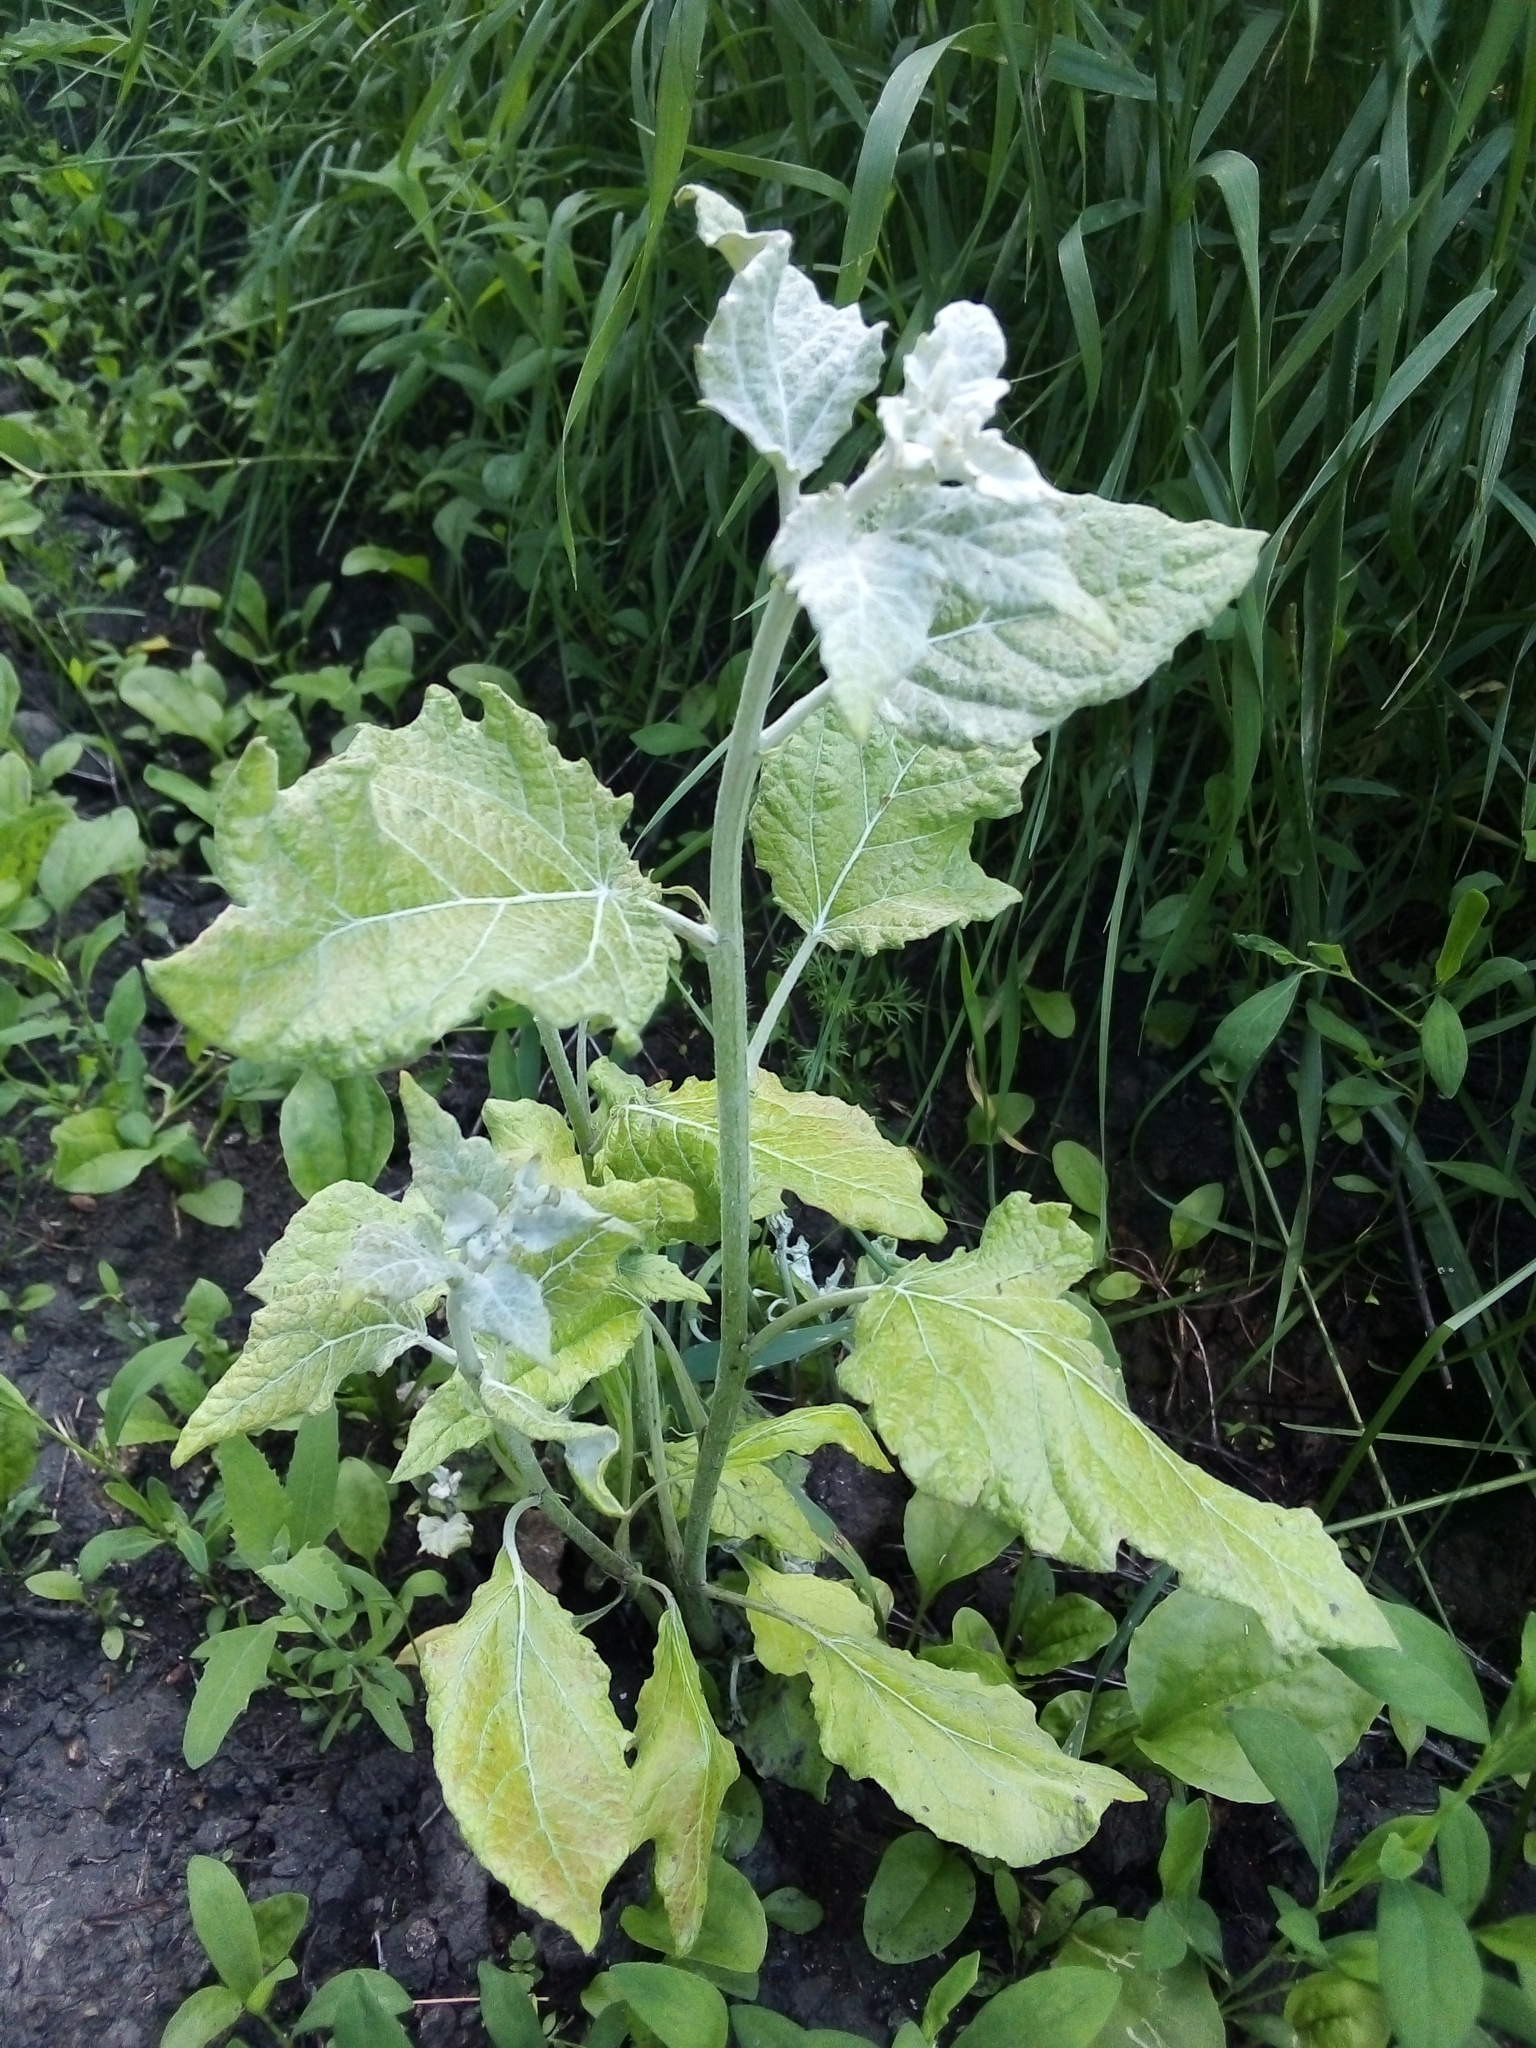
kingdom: Plantae
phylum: Tracheophyta
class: Magnoliopsida
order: Malpighiales
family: Salicaceae
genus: Populus
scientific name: Populus alba
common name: White poplar
